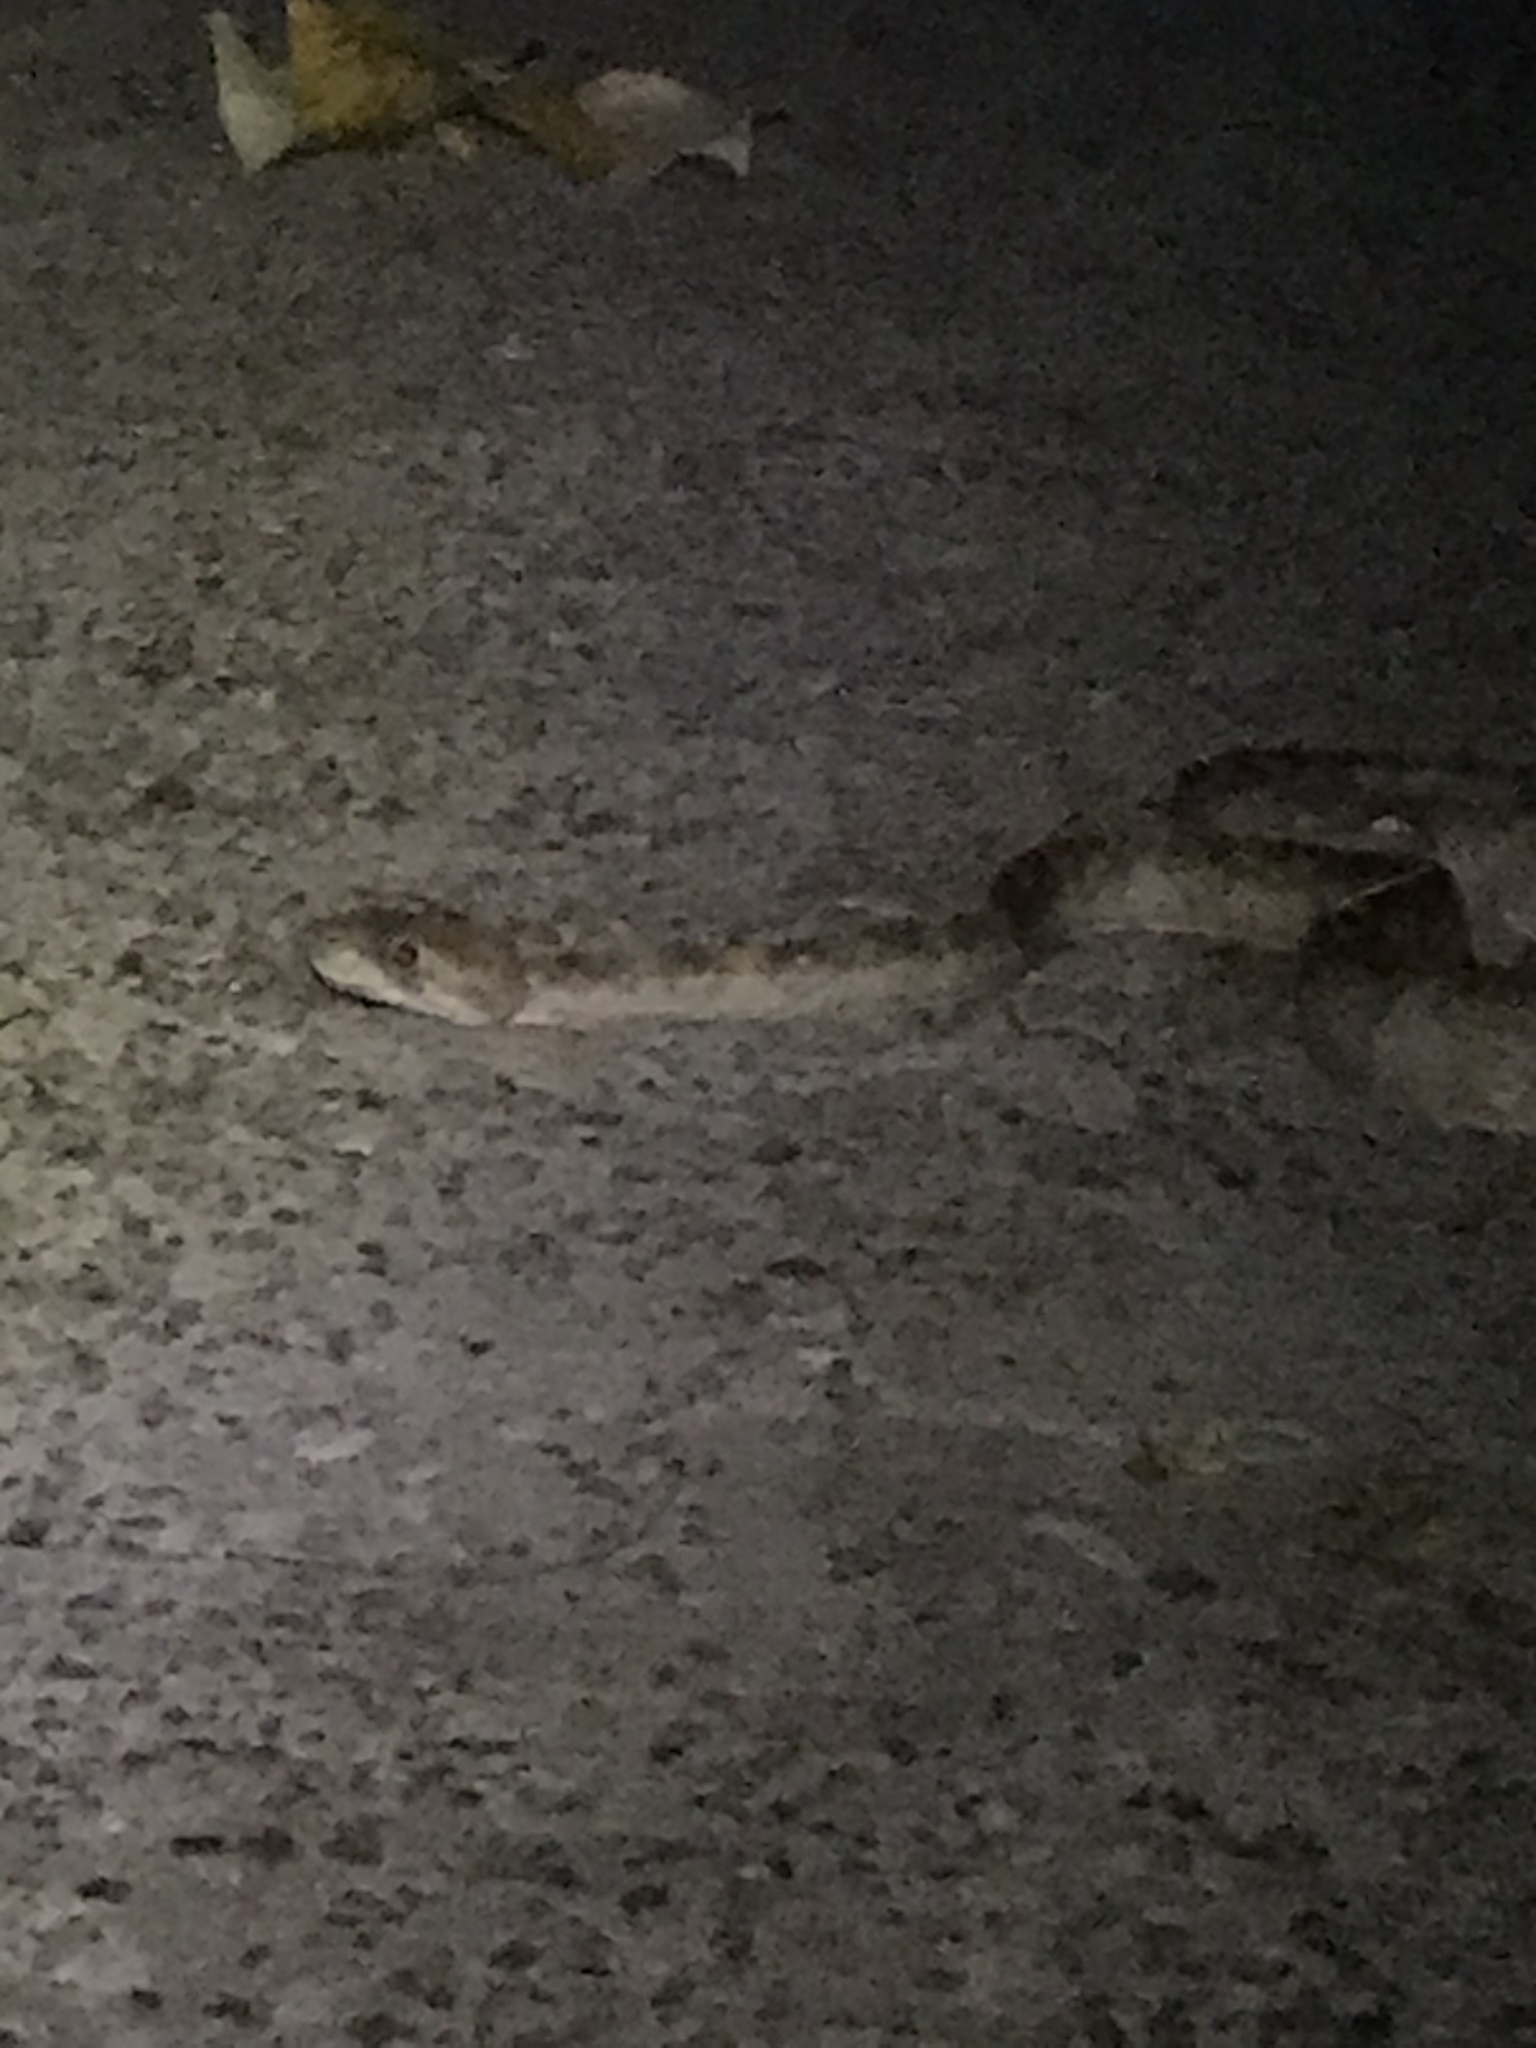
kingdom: Animalia
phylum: Chordata
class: Squamata
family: Boidae
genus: Corallus
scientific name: Corallus annulatus
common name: Ringed tree boa
